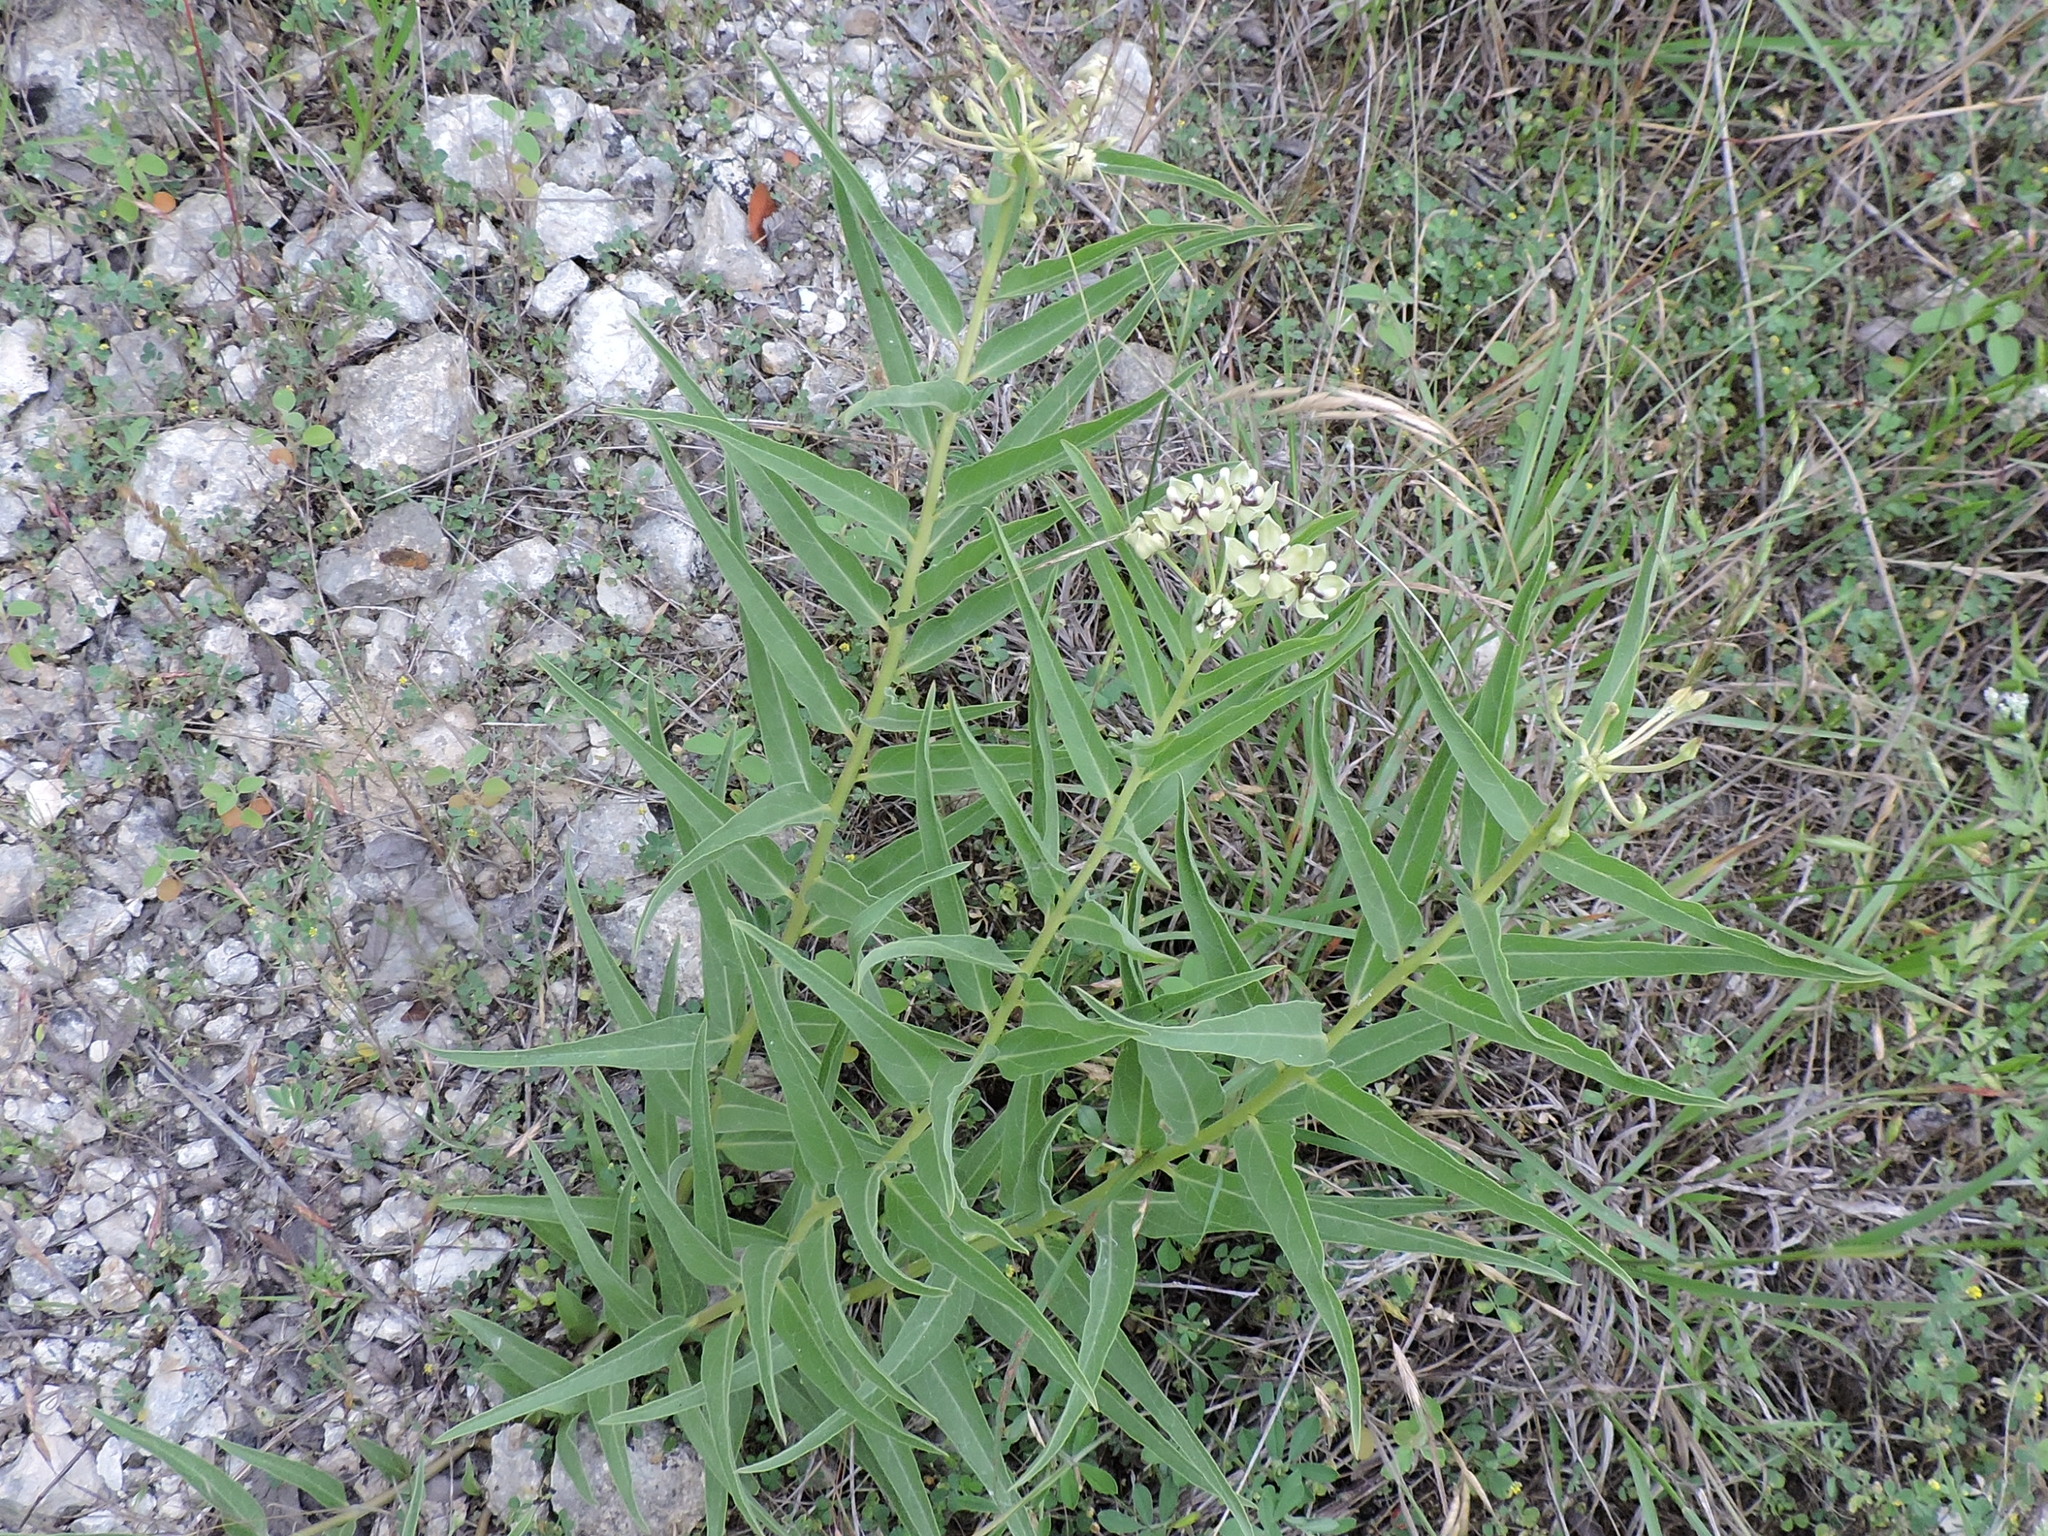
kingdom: Plantae
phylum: Tracheophyta
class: Magnoliopsida
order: Gentianales
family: Apocynaceae
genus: Asclepias
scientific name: Asclepias asperula
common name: Antelope horns
